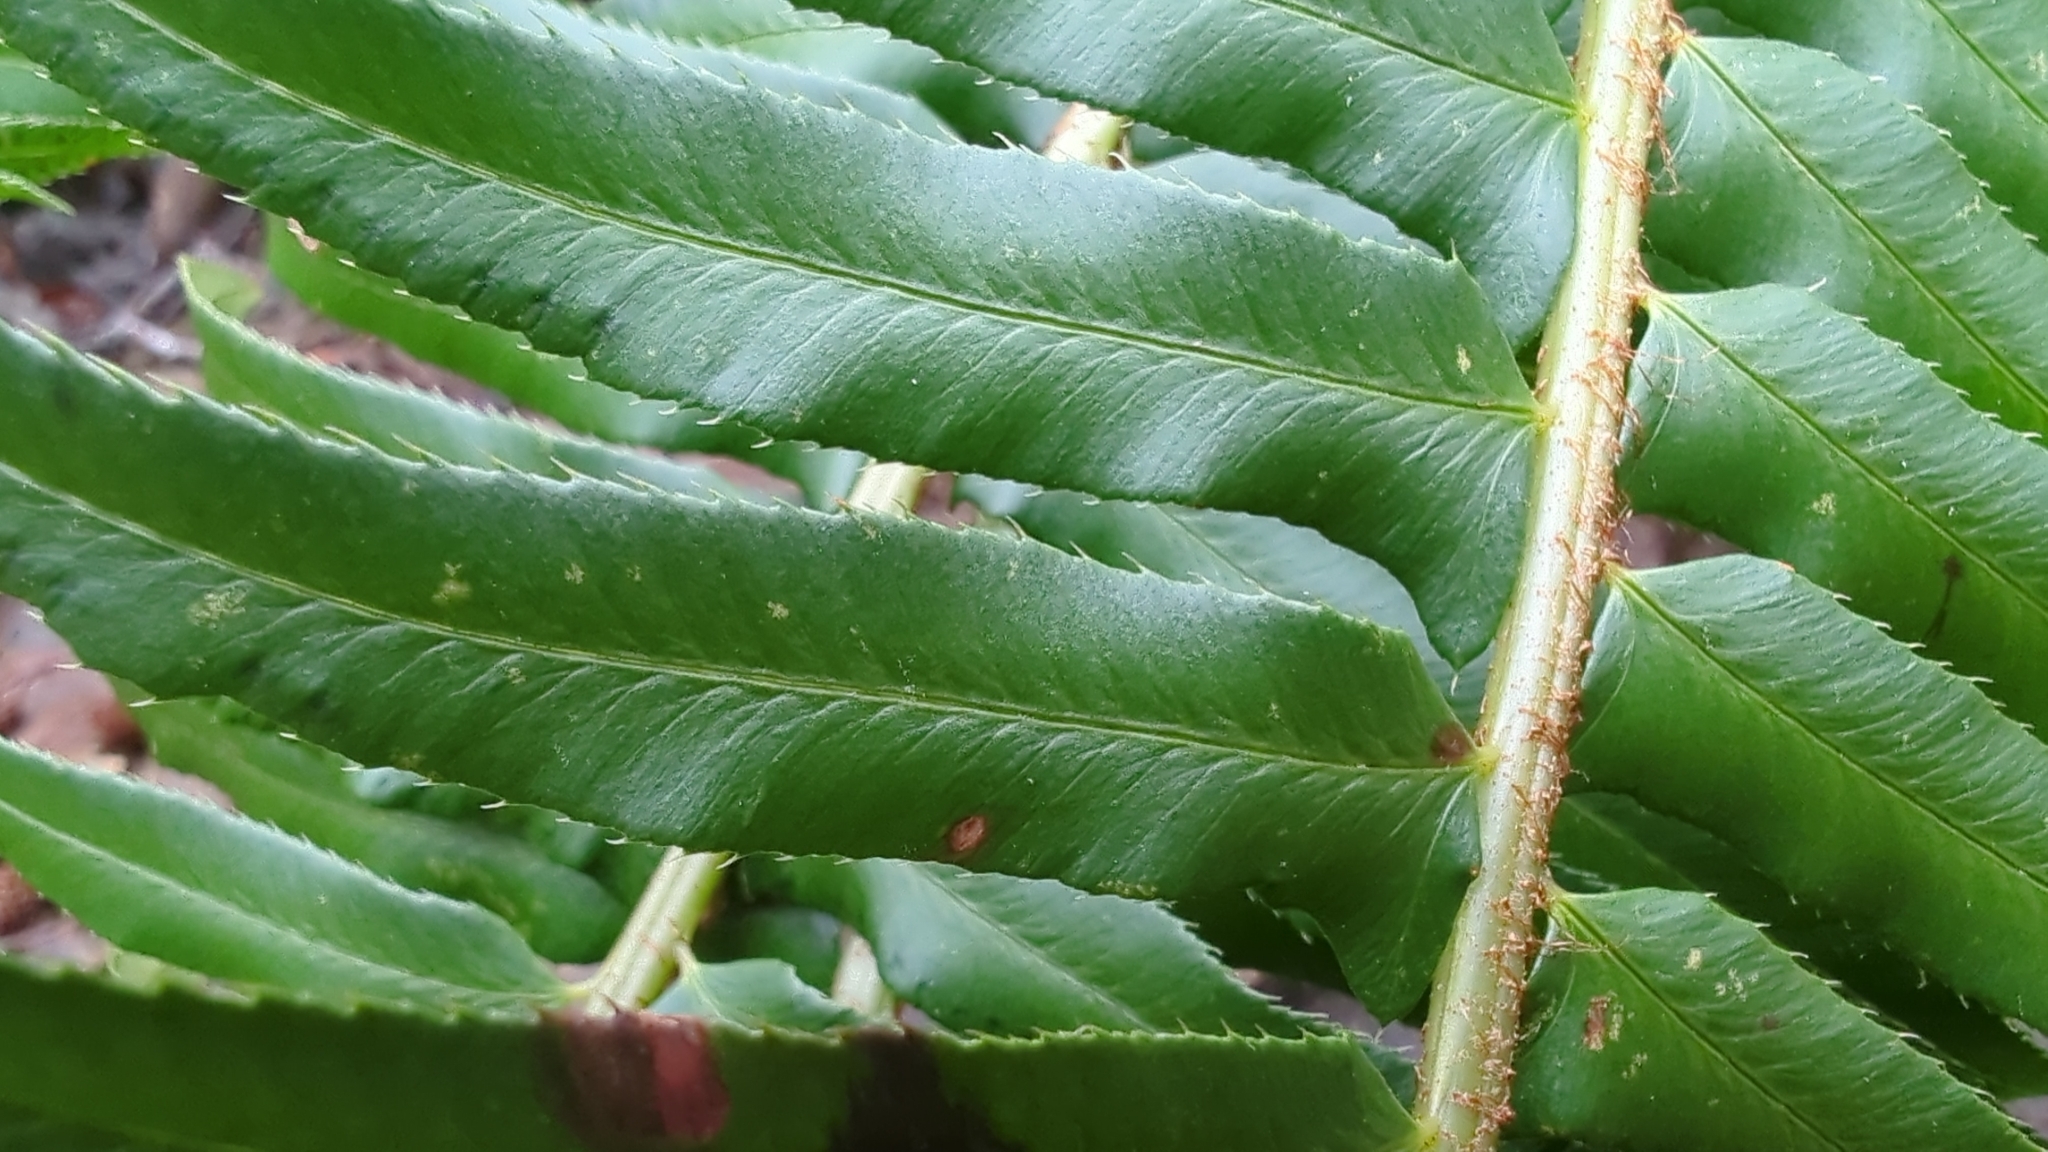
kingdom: Plantae
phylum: Tracheophyta
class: Polypodiopsida
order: Polypodiales
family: Dryopteridaceae
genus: Polystichum
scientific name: Polystichum munitum
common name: Western sword-fern
